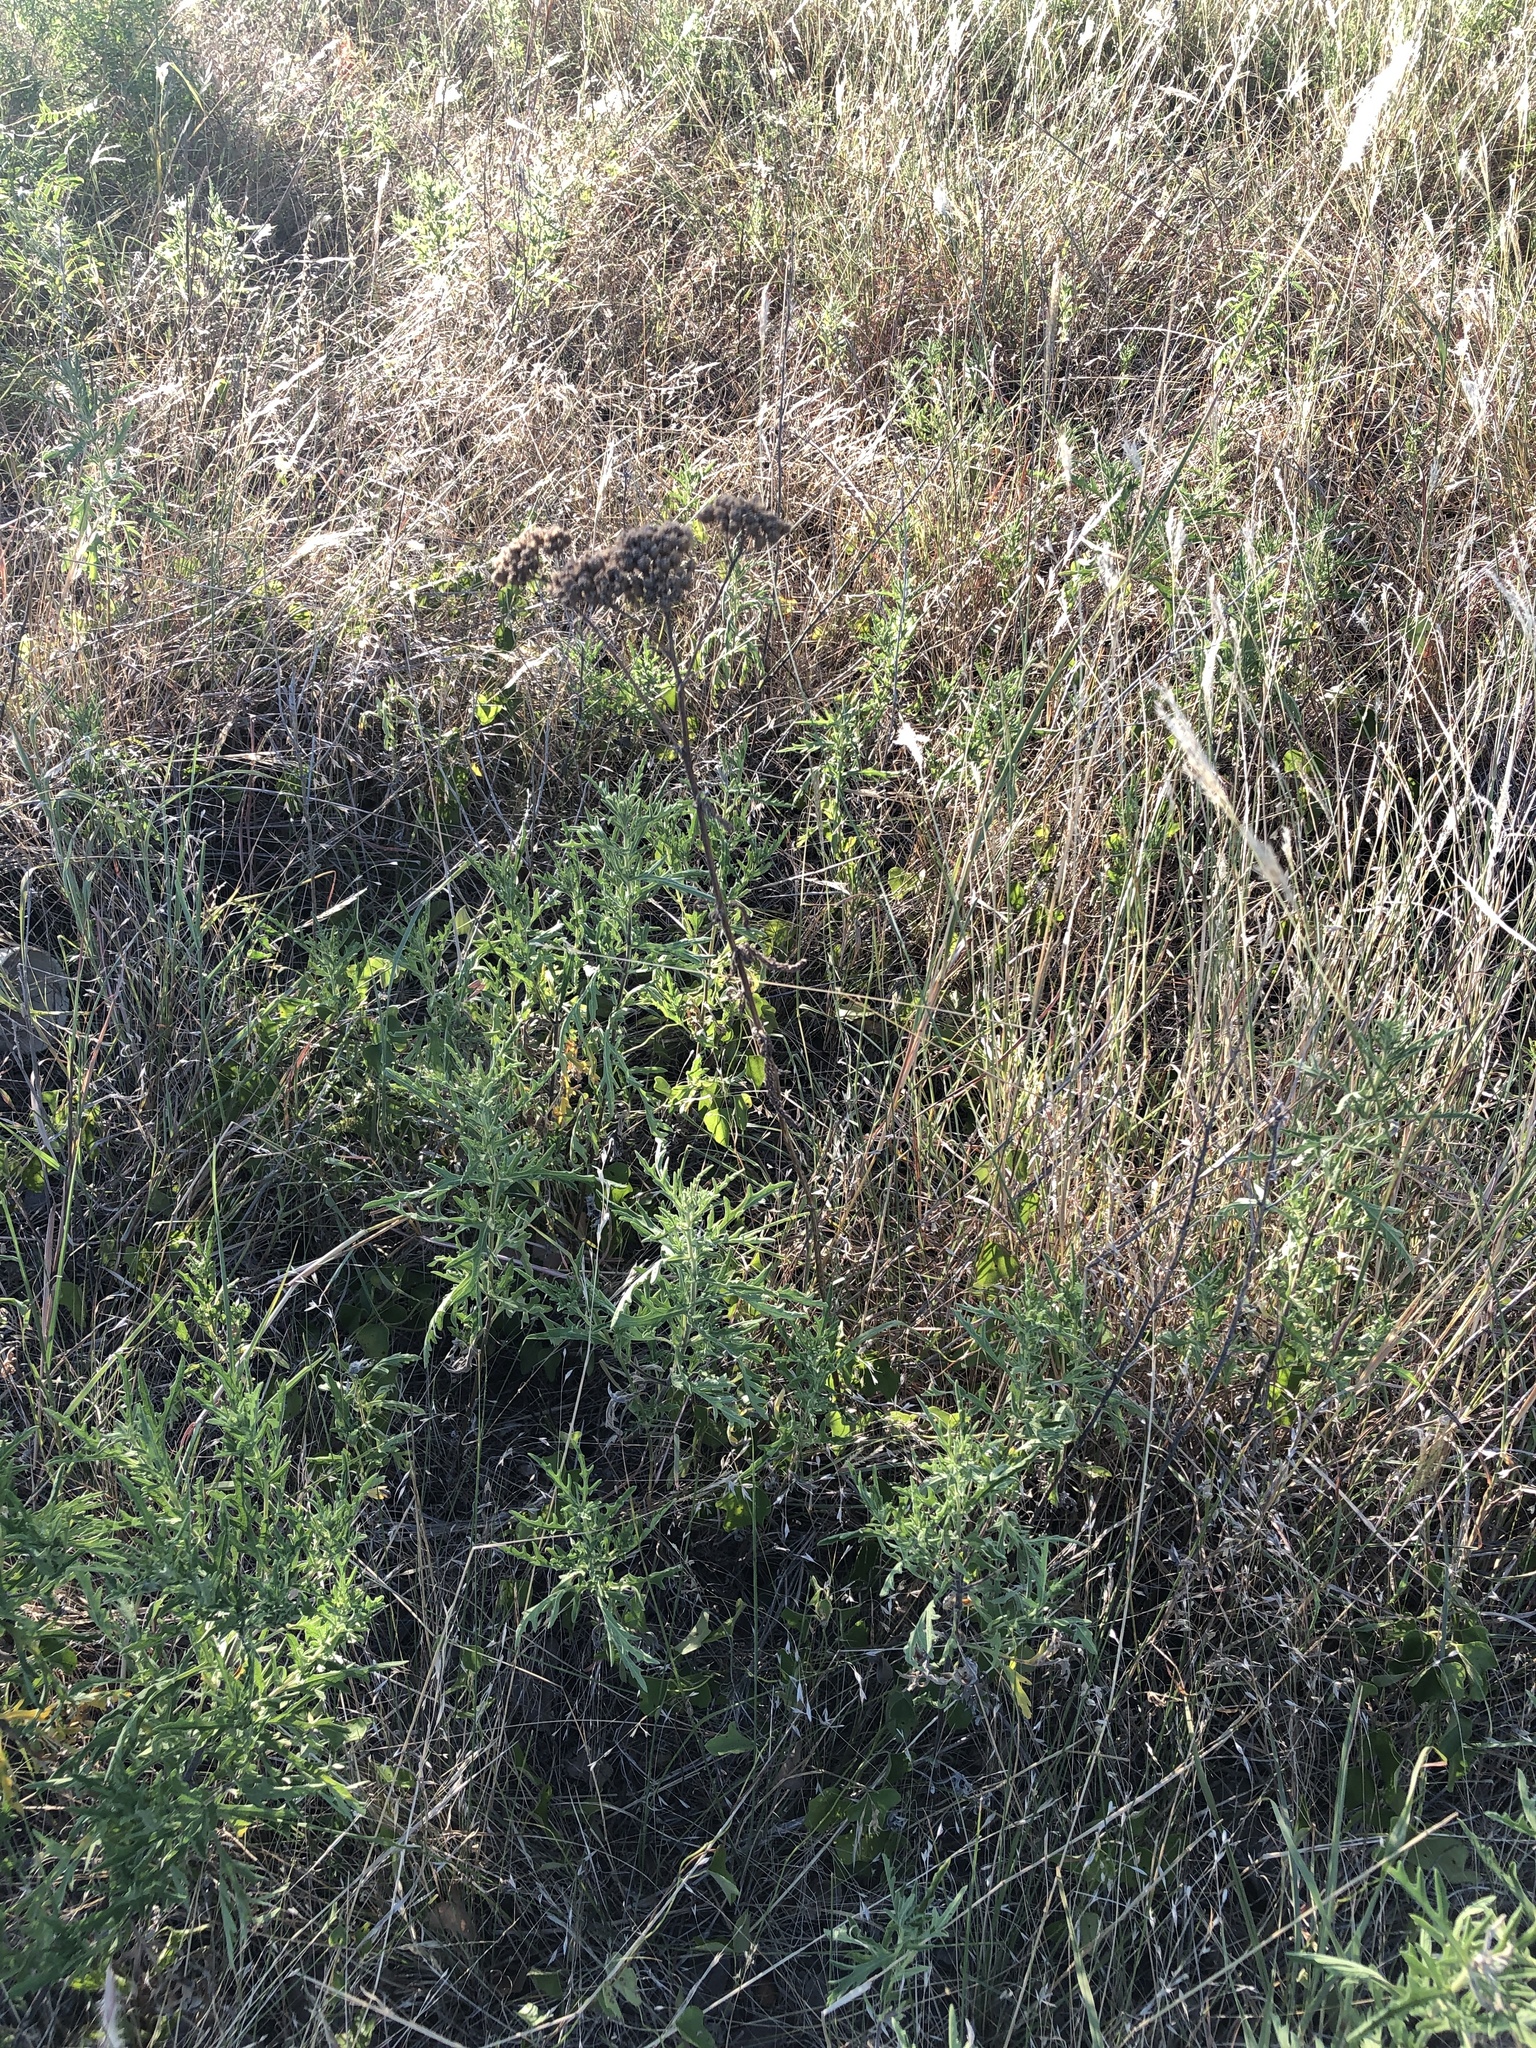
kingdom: Plantae
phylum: Tracheophyta
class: Magnoliopsida
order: Asterales
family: Asteraceae
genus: Achillea
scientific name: Achillea millefolium
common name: Yarrow
